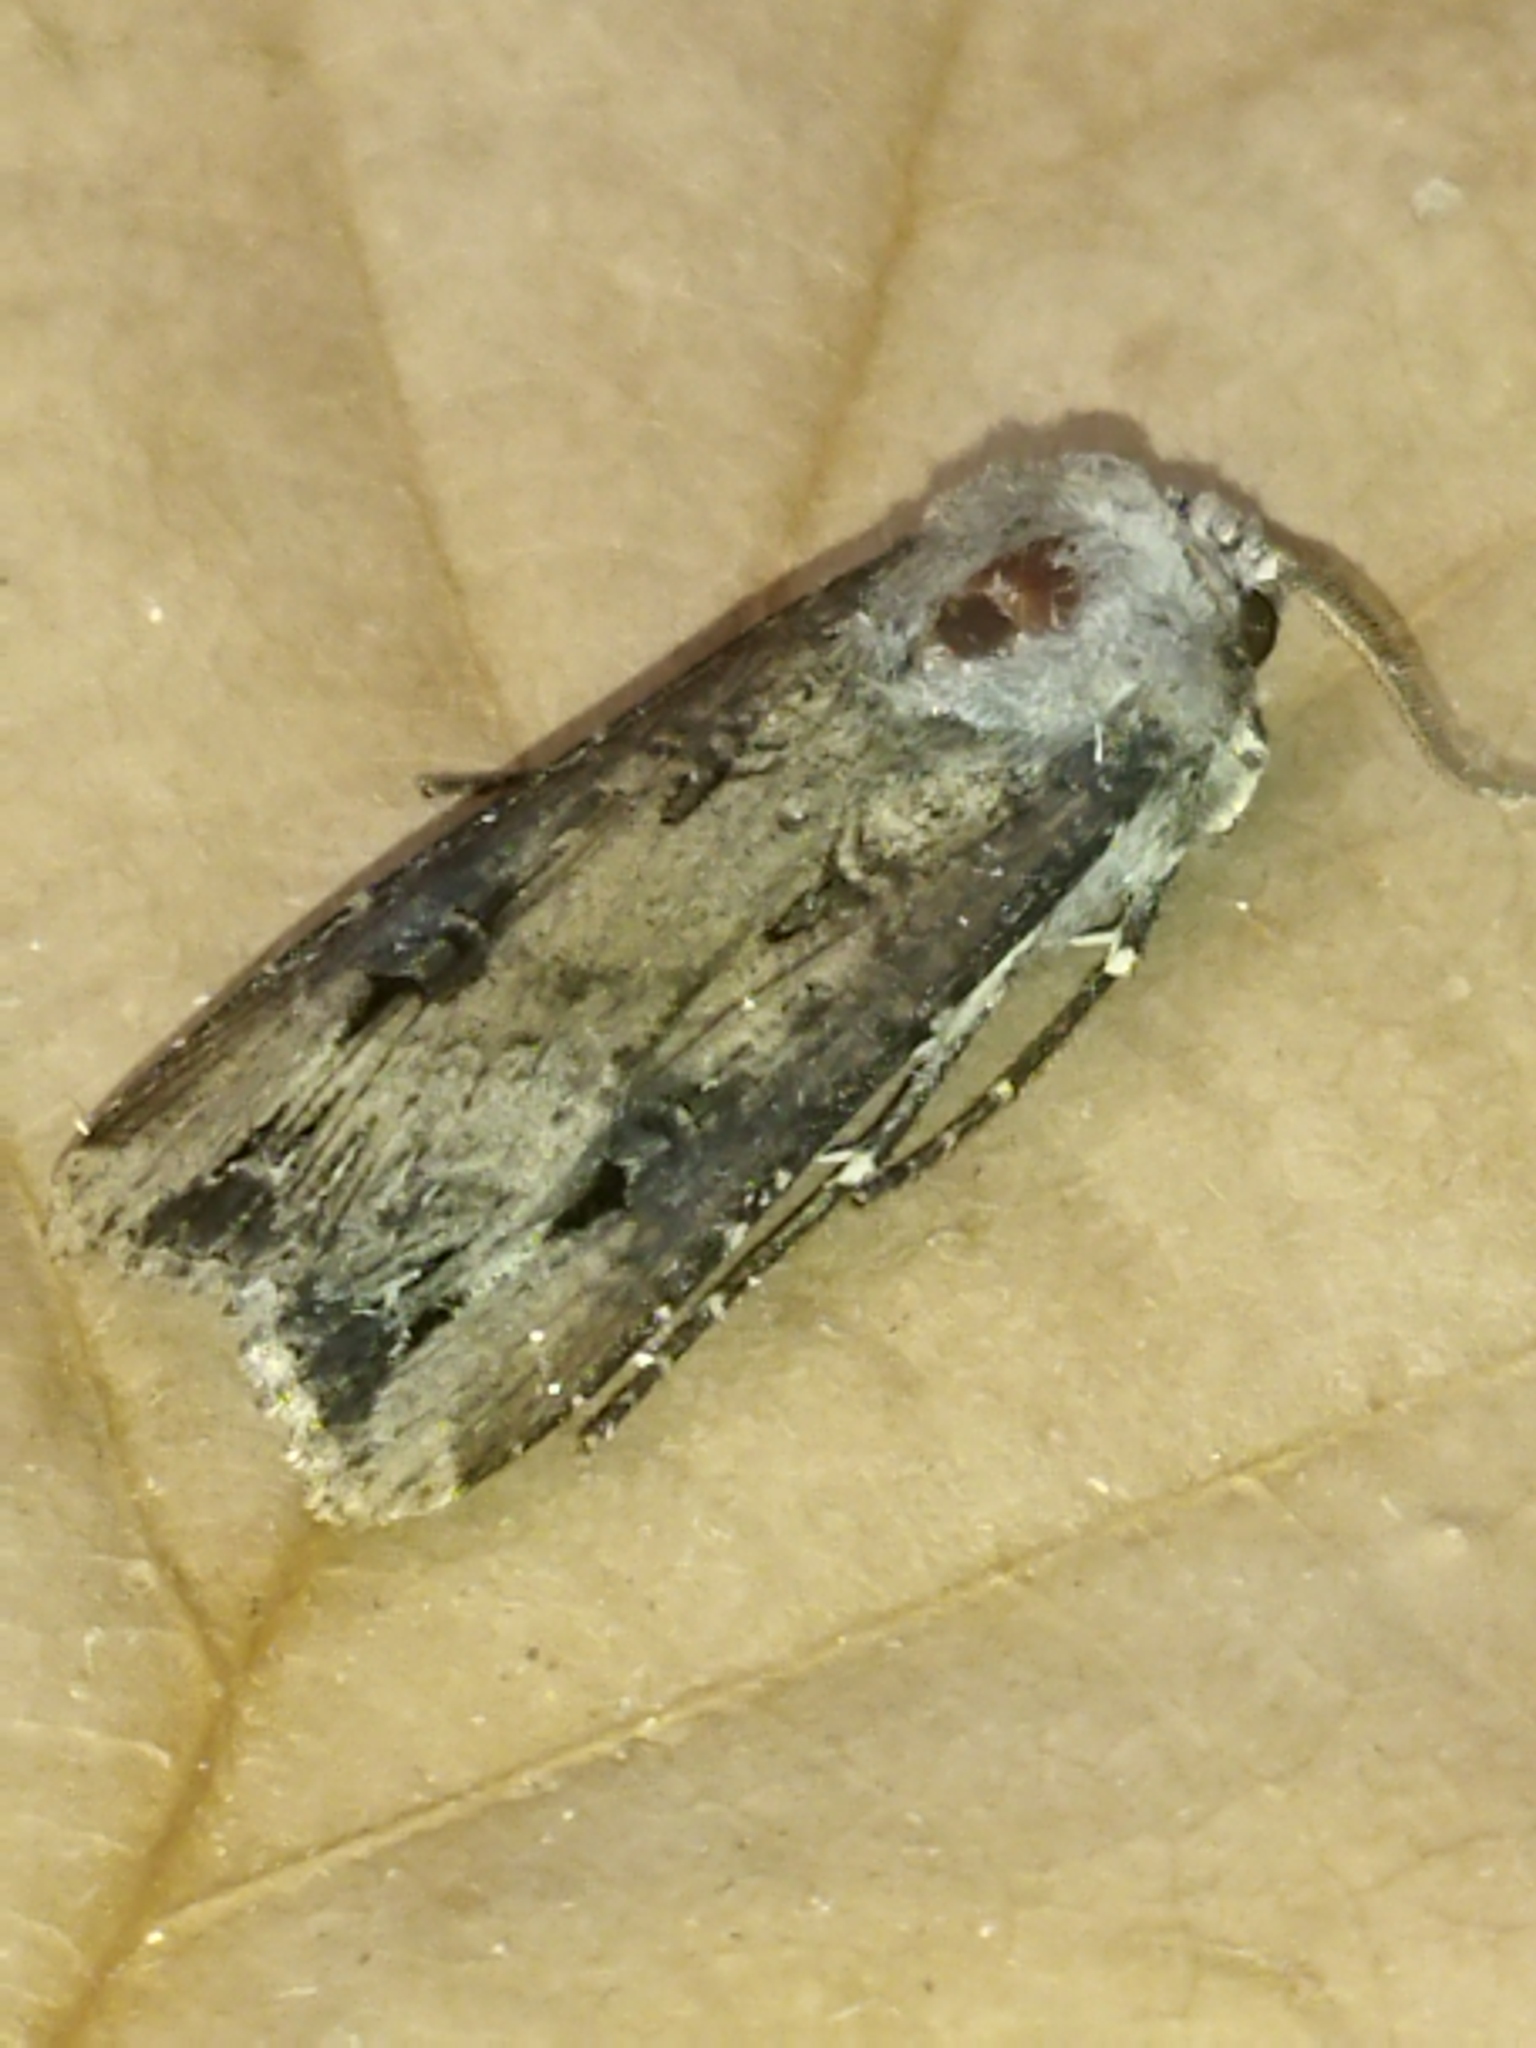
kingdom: Animalia
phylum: Arthropoda
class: Insecta
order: Lepidoptera
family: Noctuidae
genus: Agrotis
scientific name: Agrotis ipsilon
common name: Dark sword-grass
